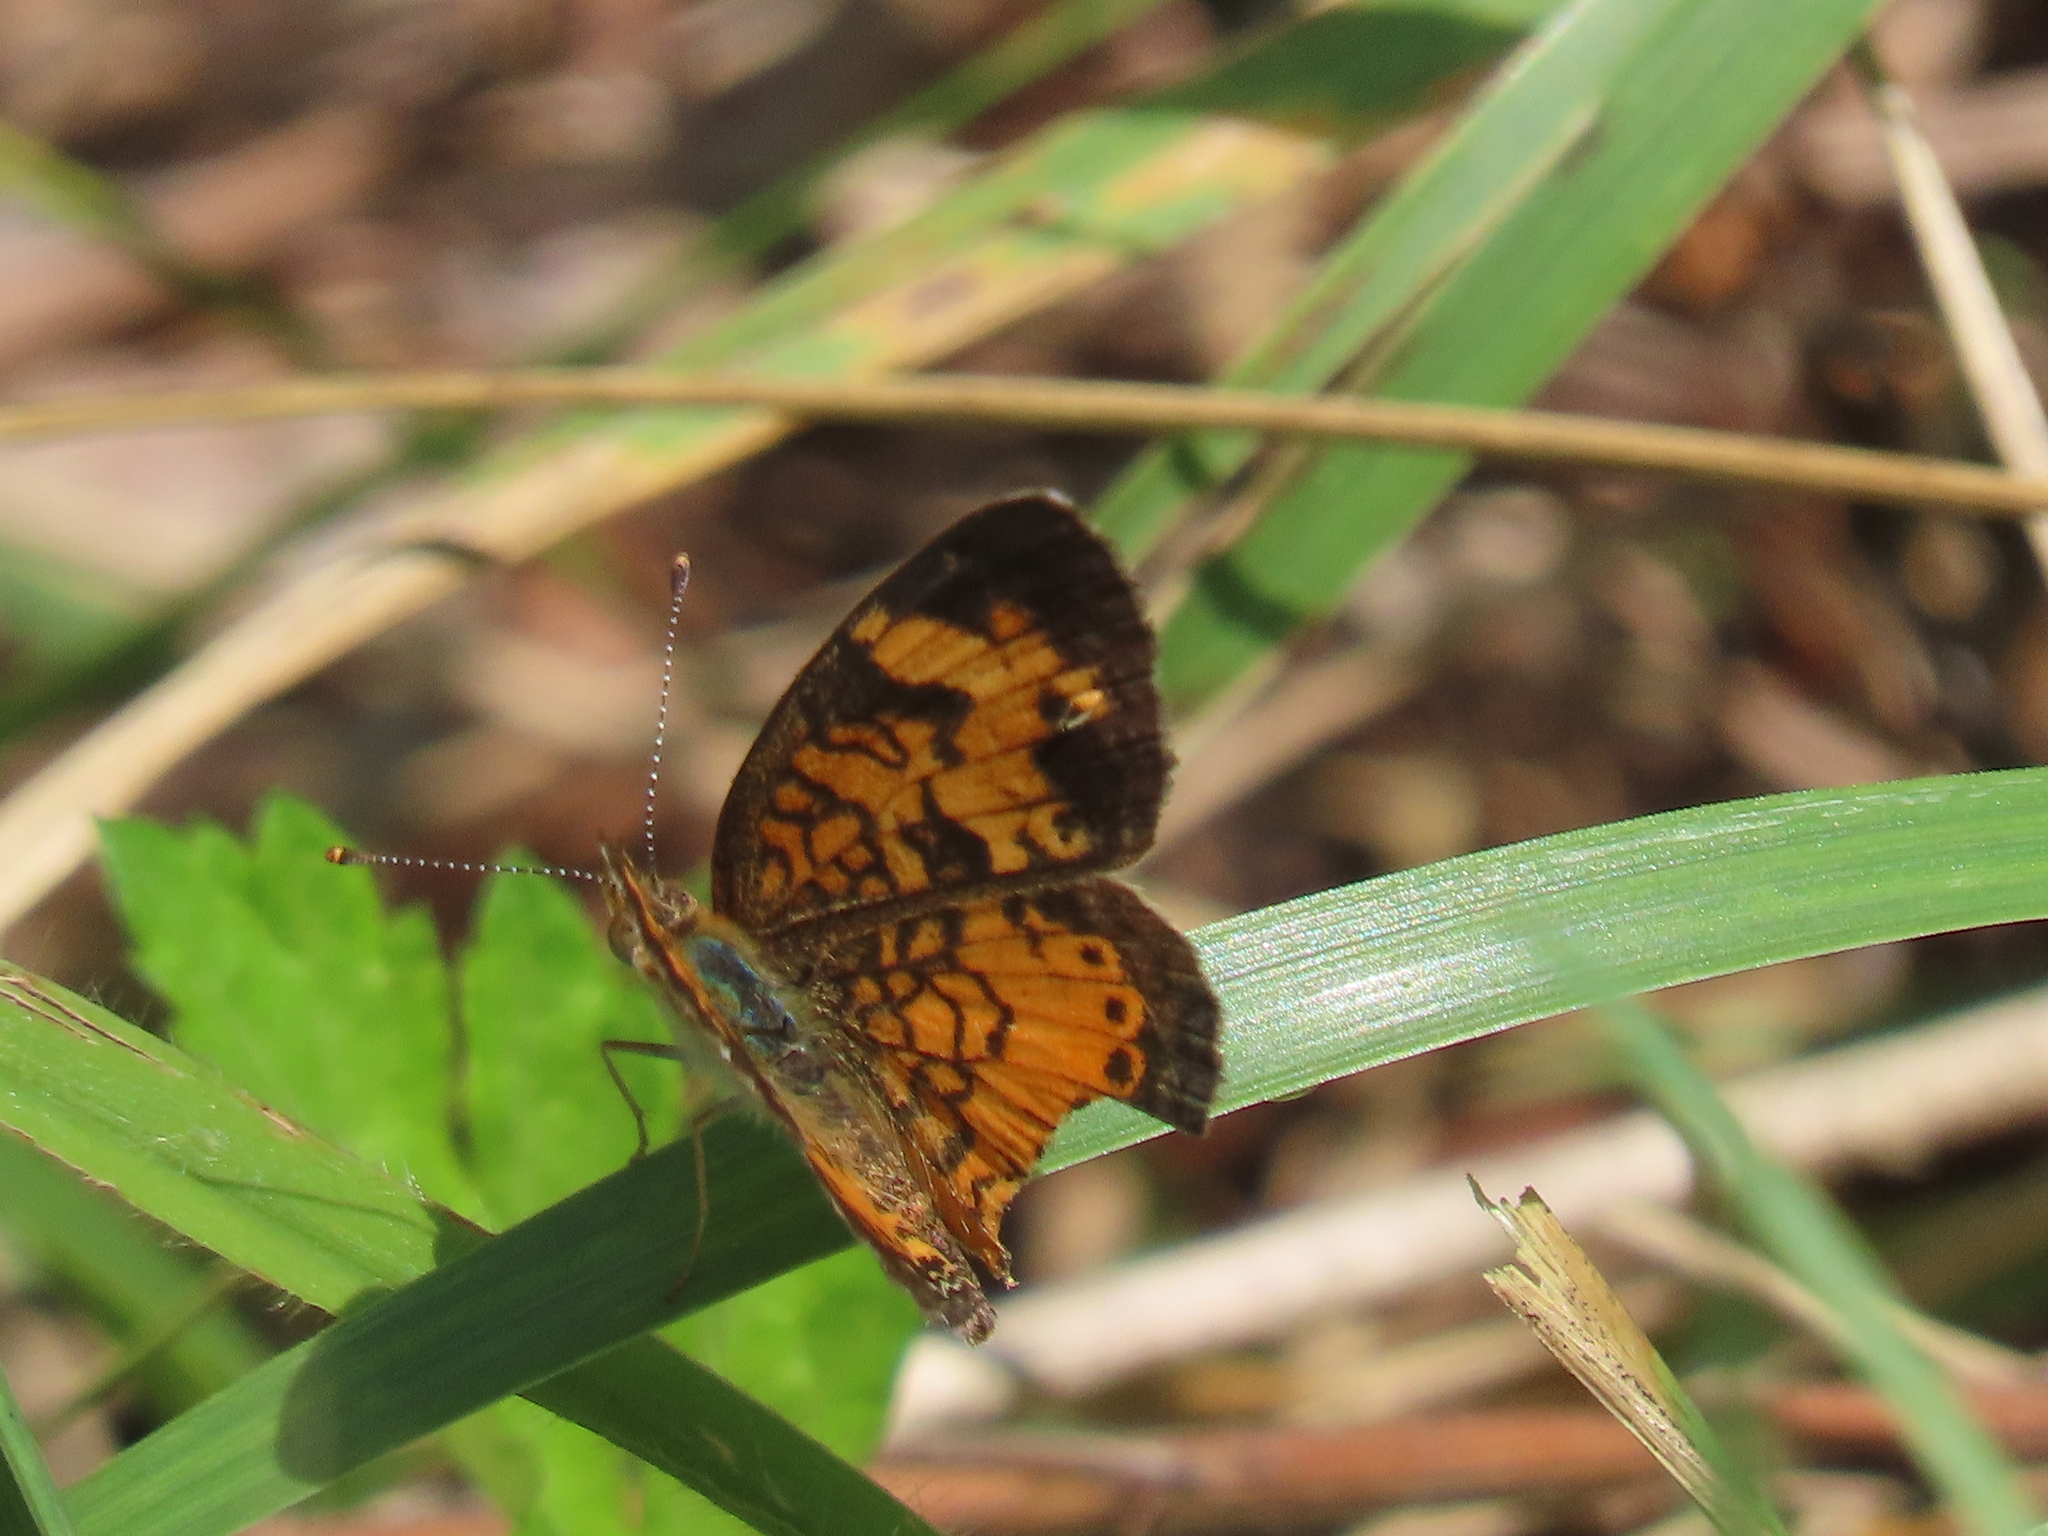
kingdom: Animalia
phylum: Arthropoda
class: Insecta
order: Lepidoptera
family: Nymphalidae
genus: Phyciodes
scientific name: Phyciodes tharos
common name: Pearl crescent
